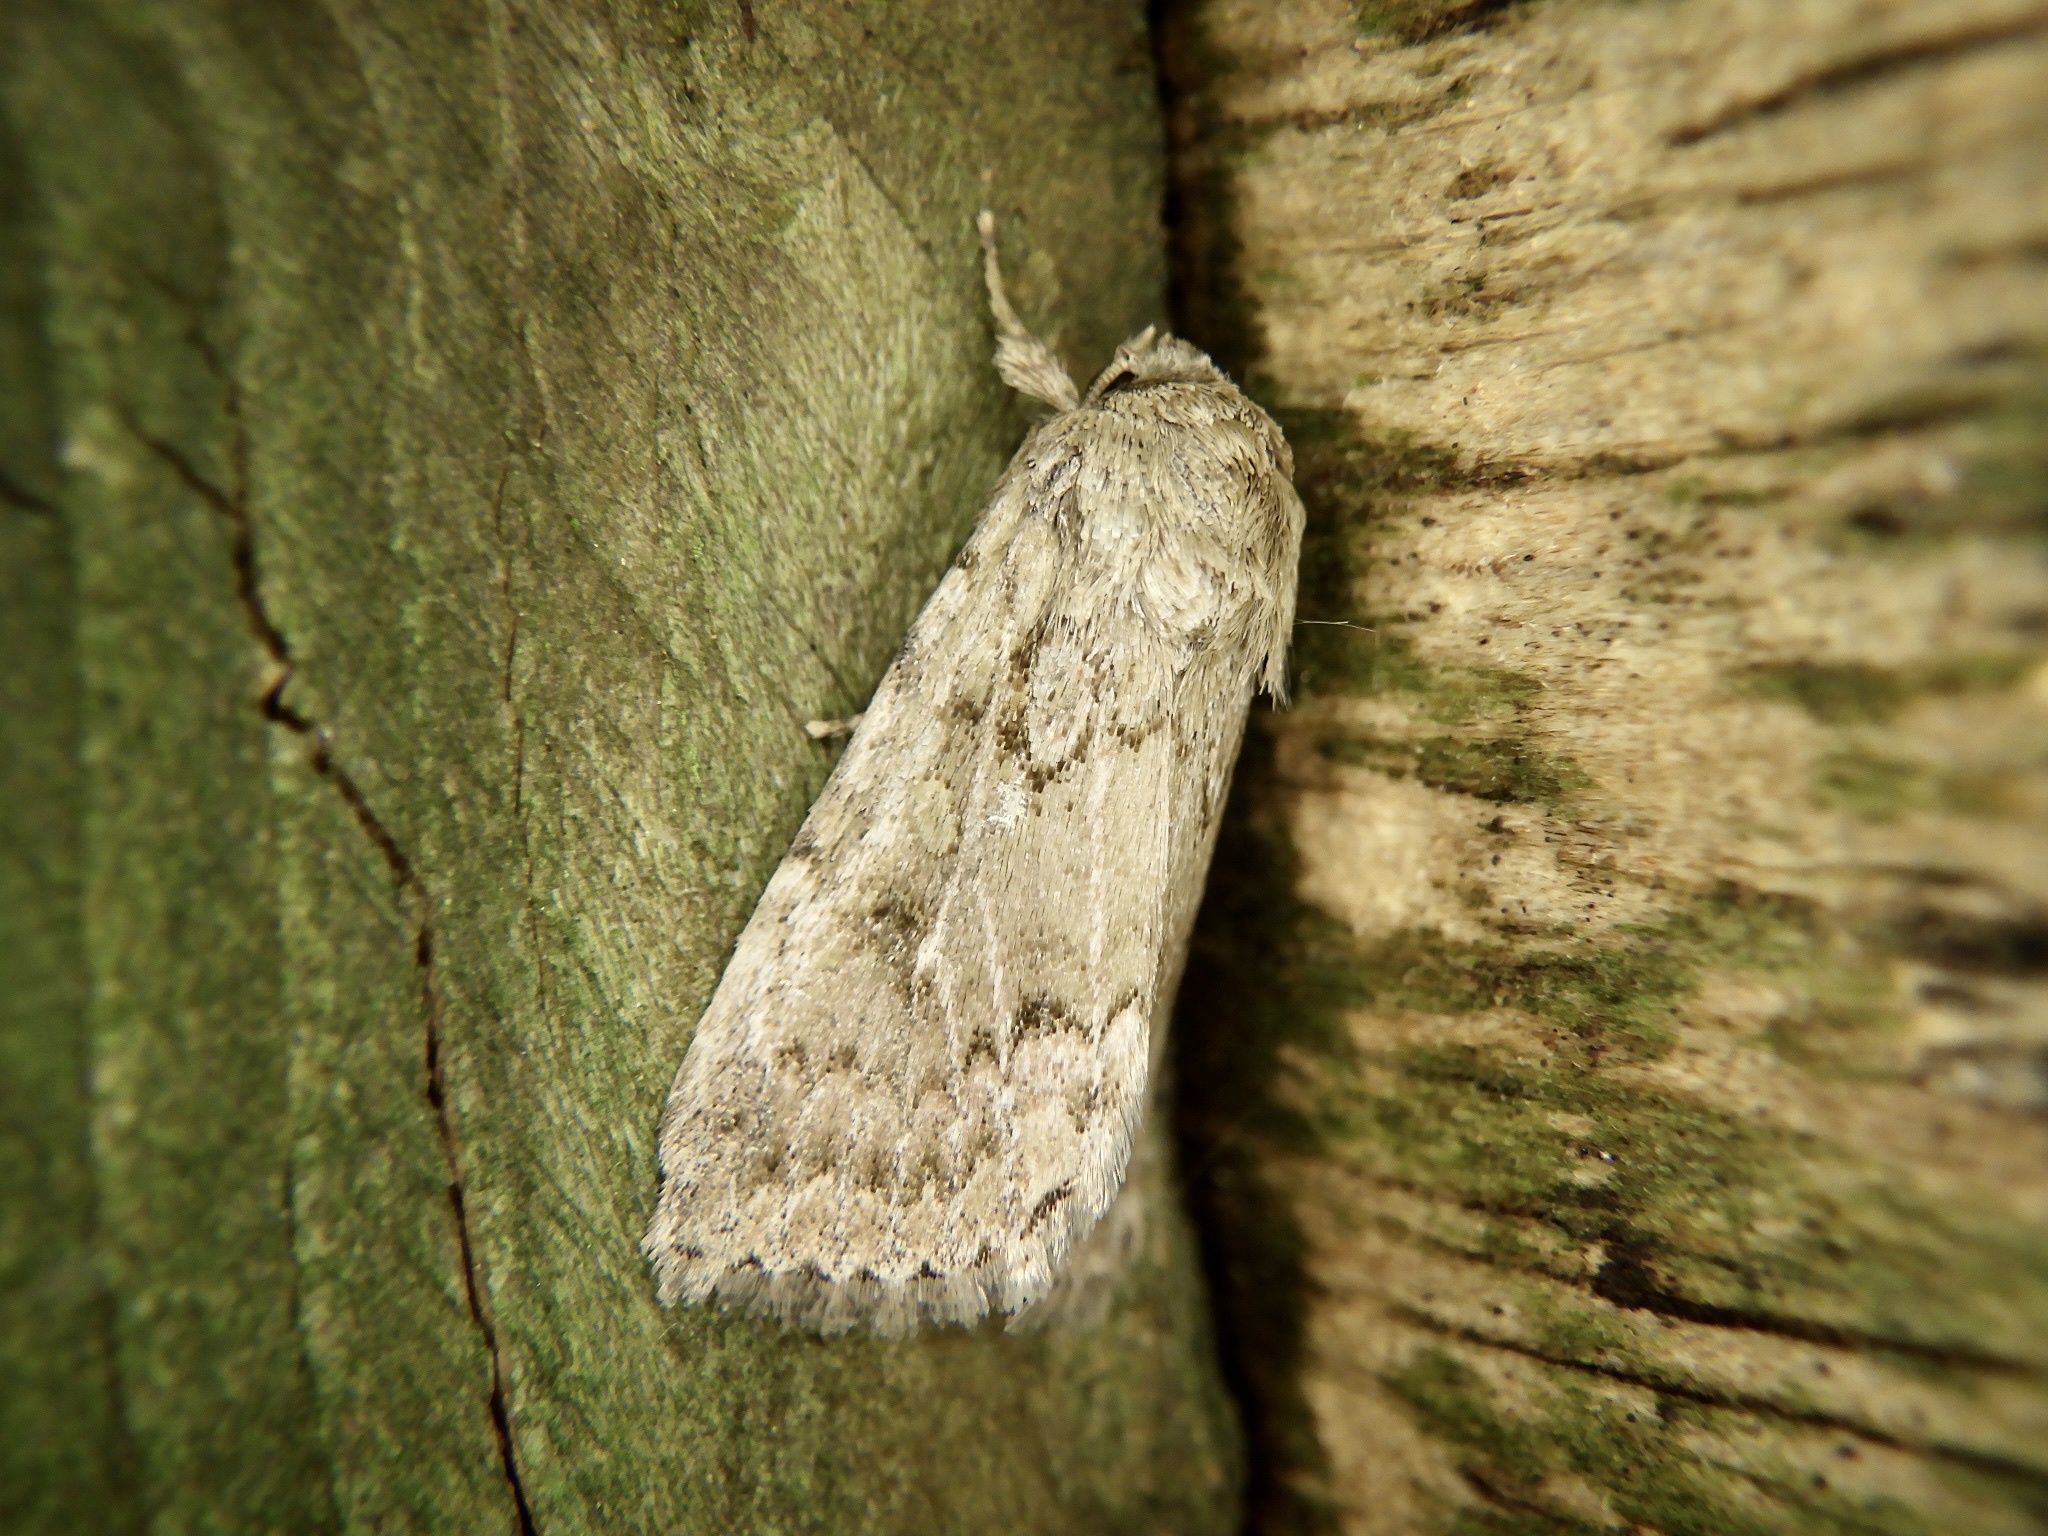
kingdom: Animalia
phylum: Arthropoda
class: Insecta
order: Lepidoptera
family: Noctuidae
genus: Spodoptera
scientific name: Spodoptera depravata
